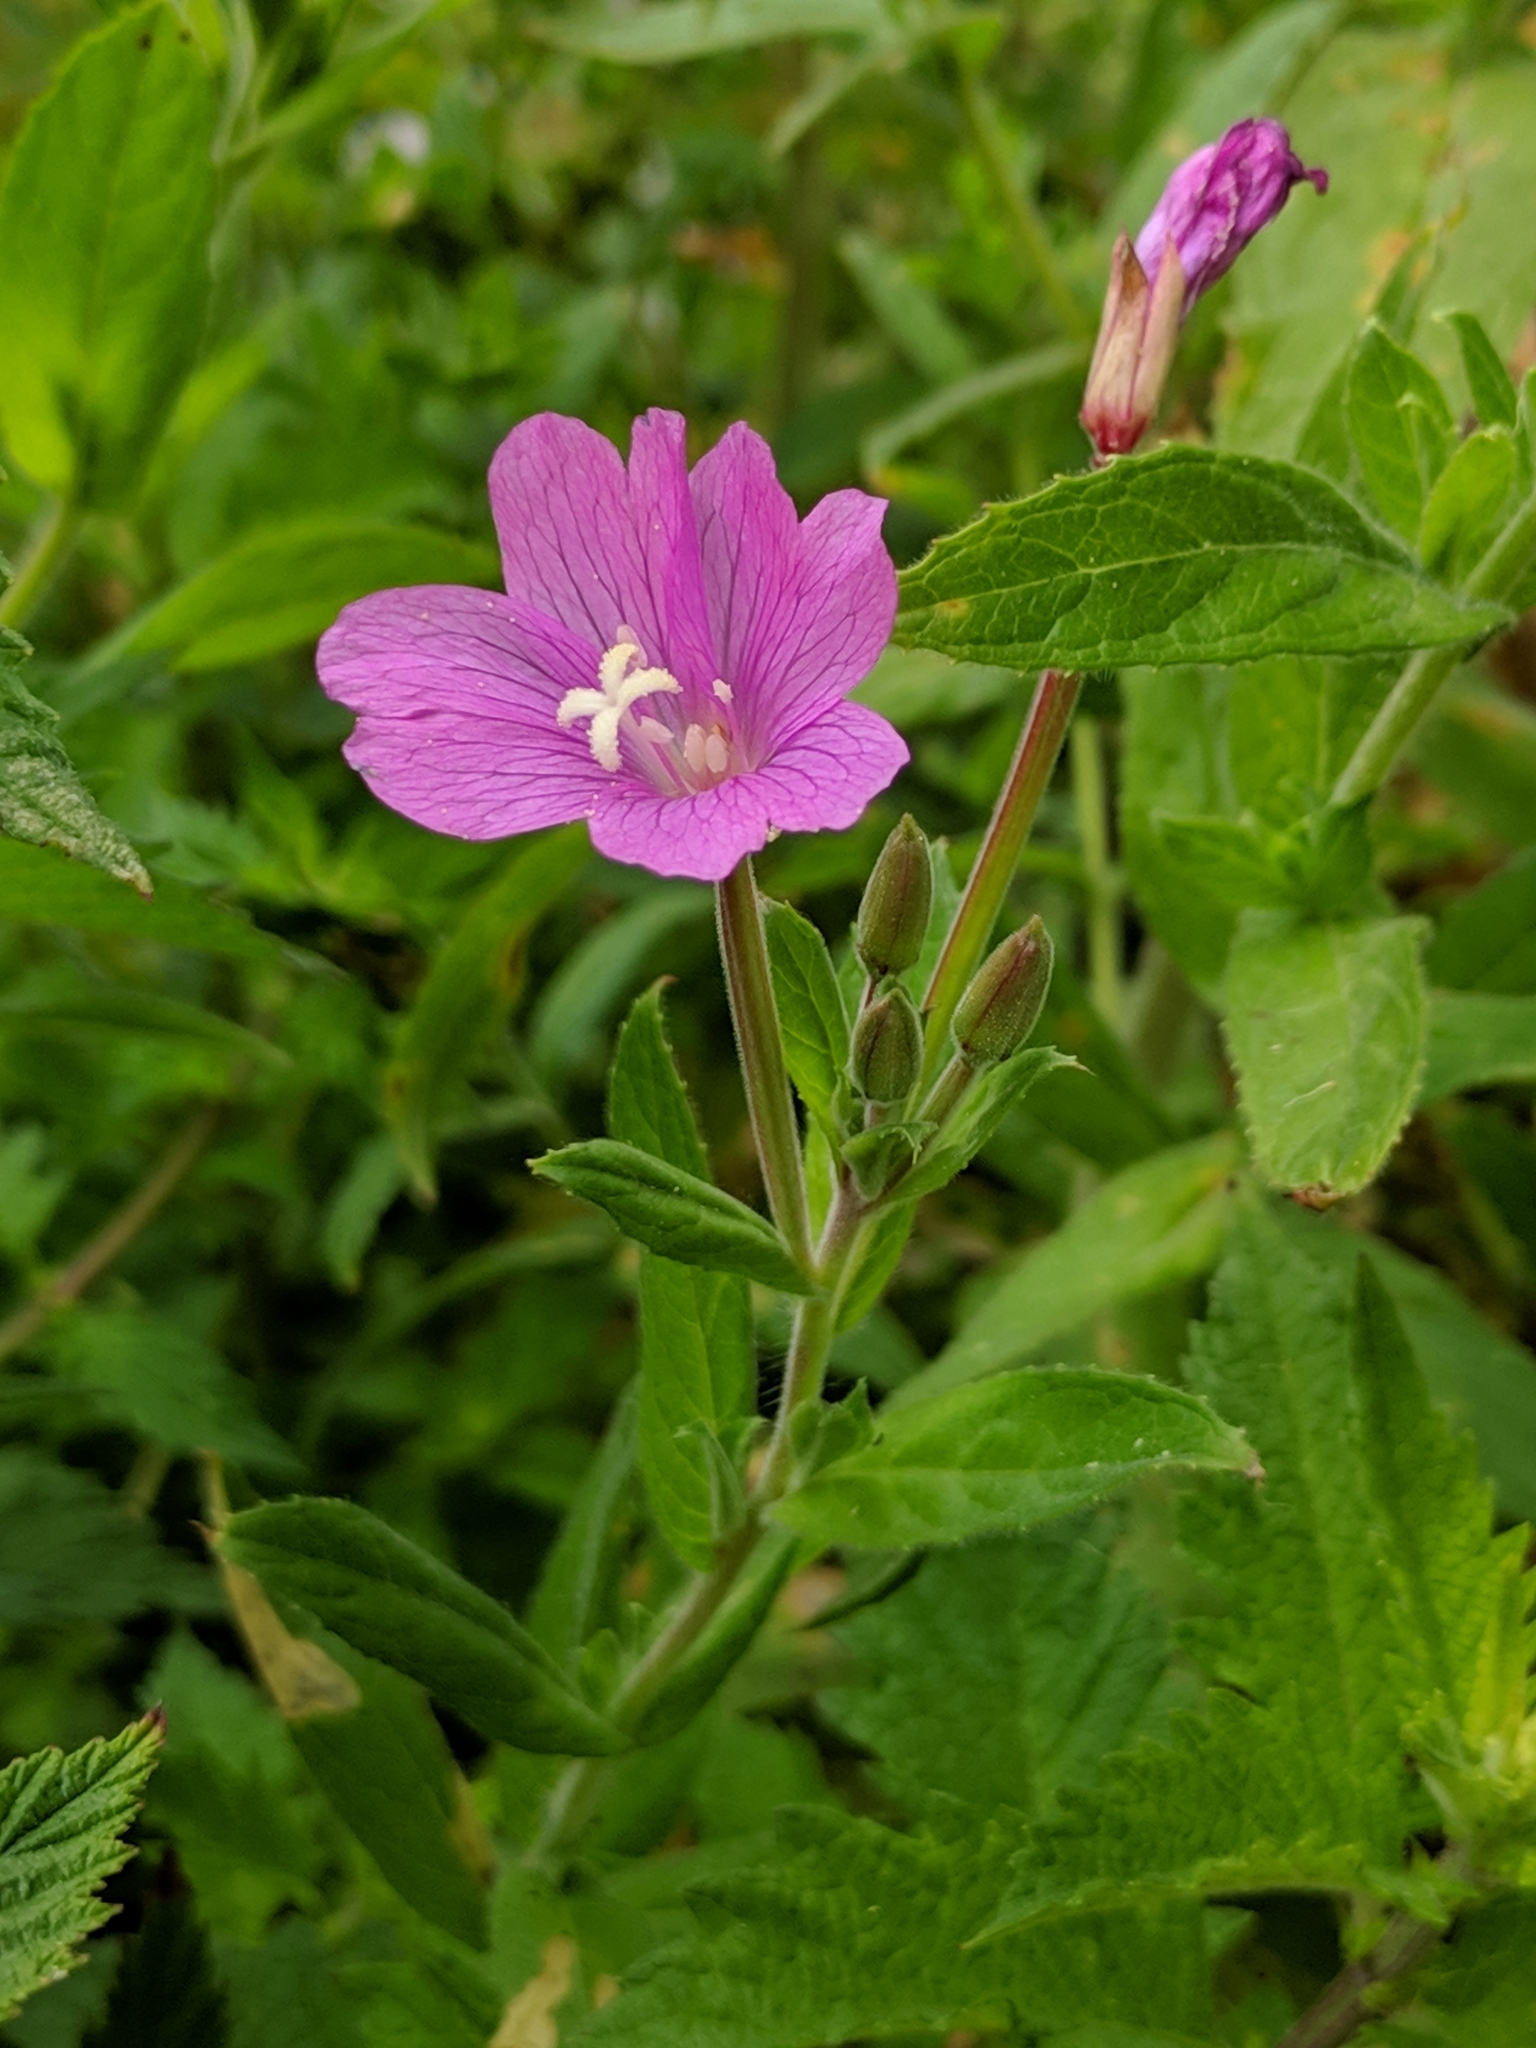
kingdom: Plantae
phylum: Tracheophyta
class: Magnoliopsida
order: Myrtales
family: Onagraceae
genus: Epilobium
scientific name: Epilobium hirsutum
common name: Great willowherb
